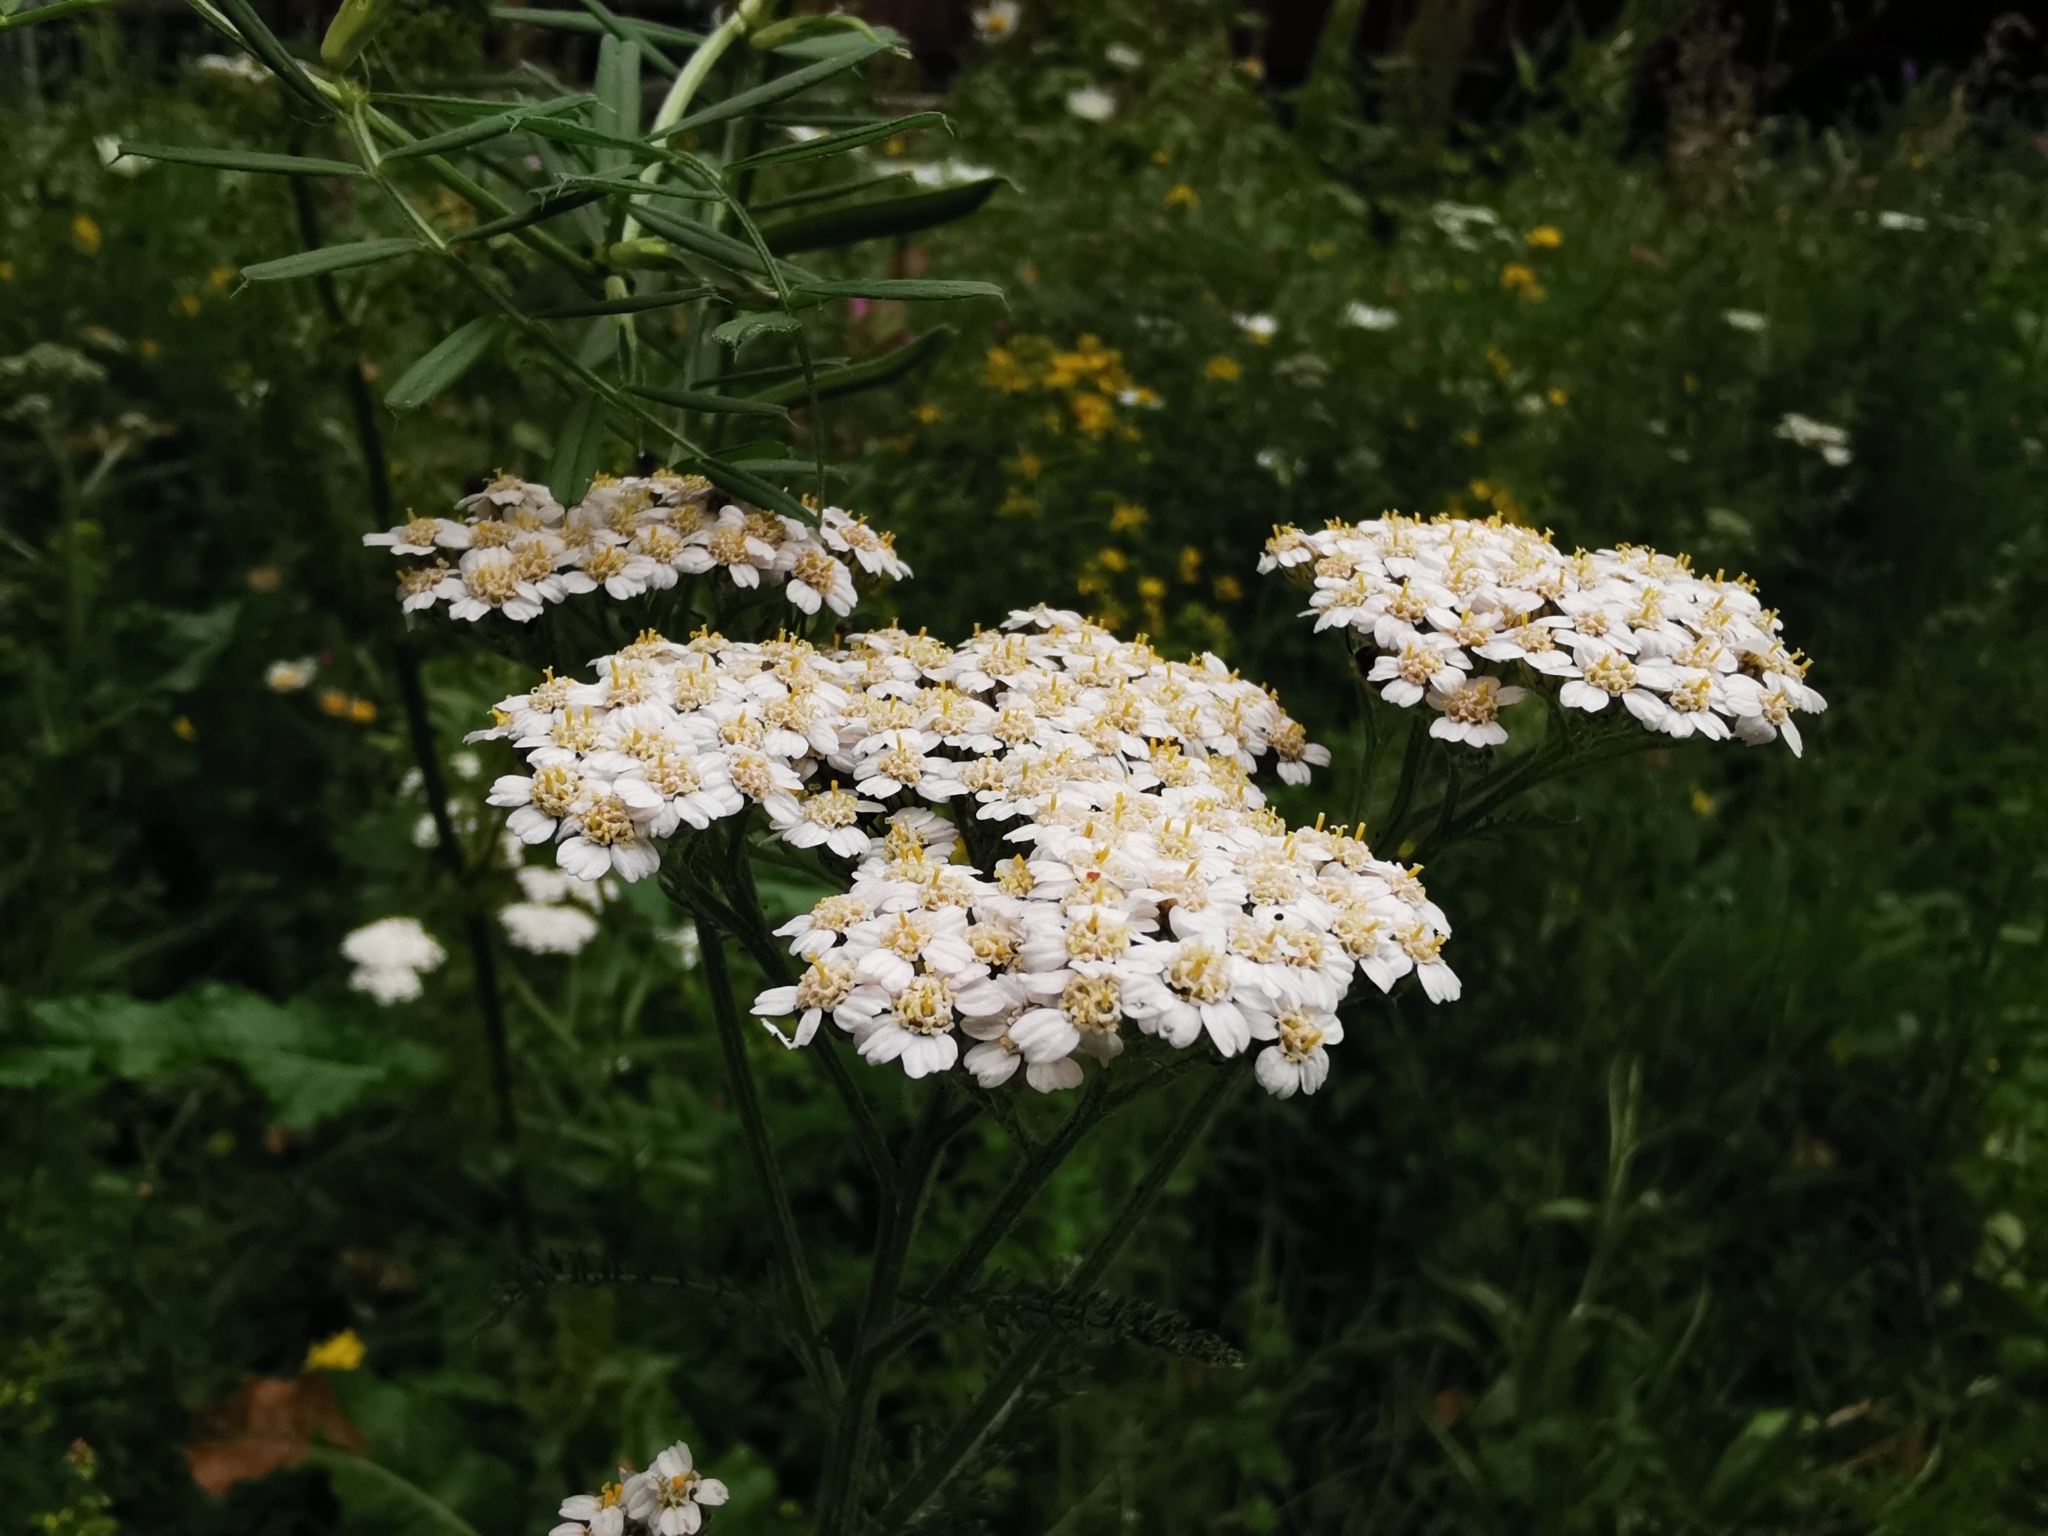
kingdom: Plantae
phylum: Tracheophyta
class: Magnoliopsida
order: Asterales
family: Asteraceae
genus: Achillea
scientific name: Achillea millefolium
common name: Yarrow
